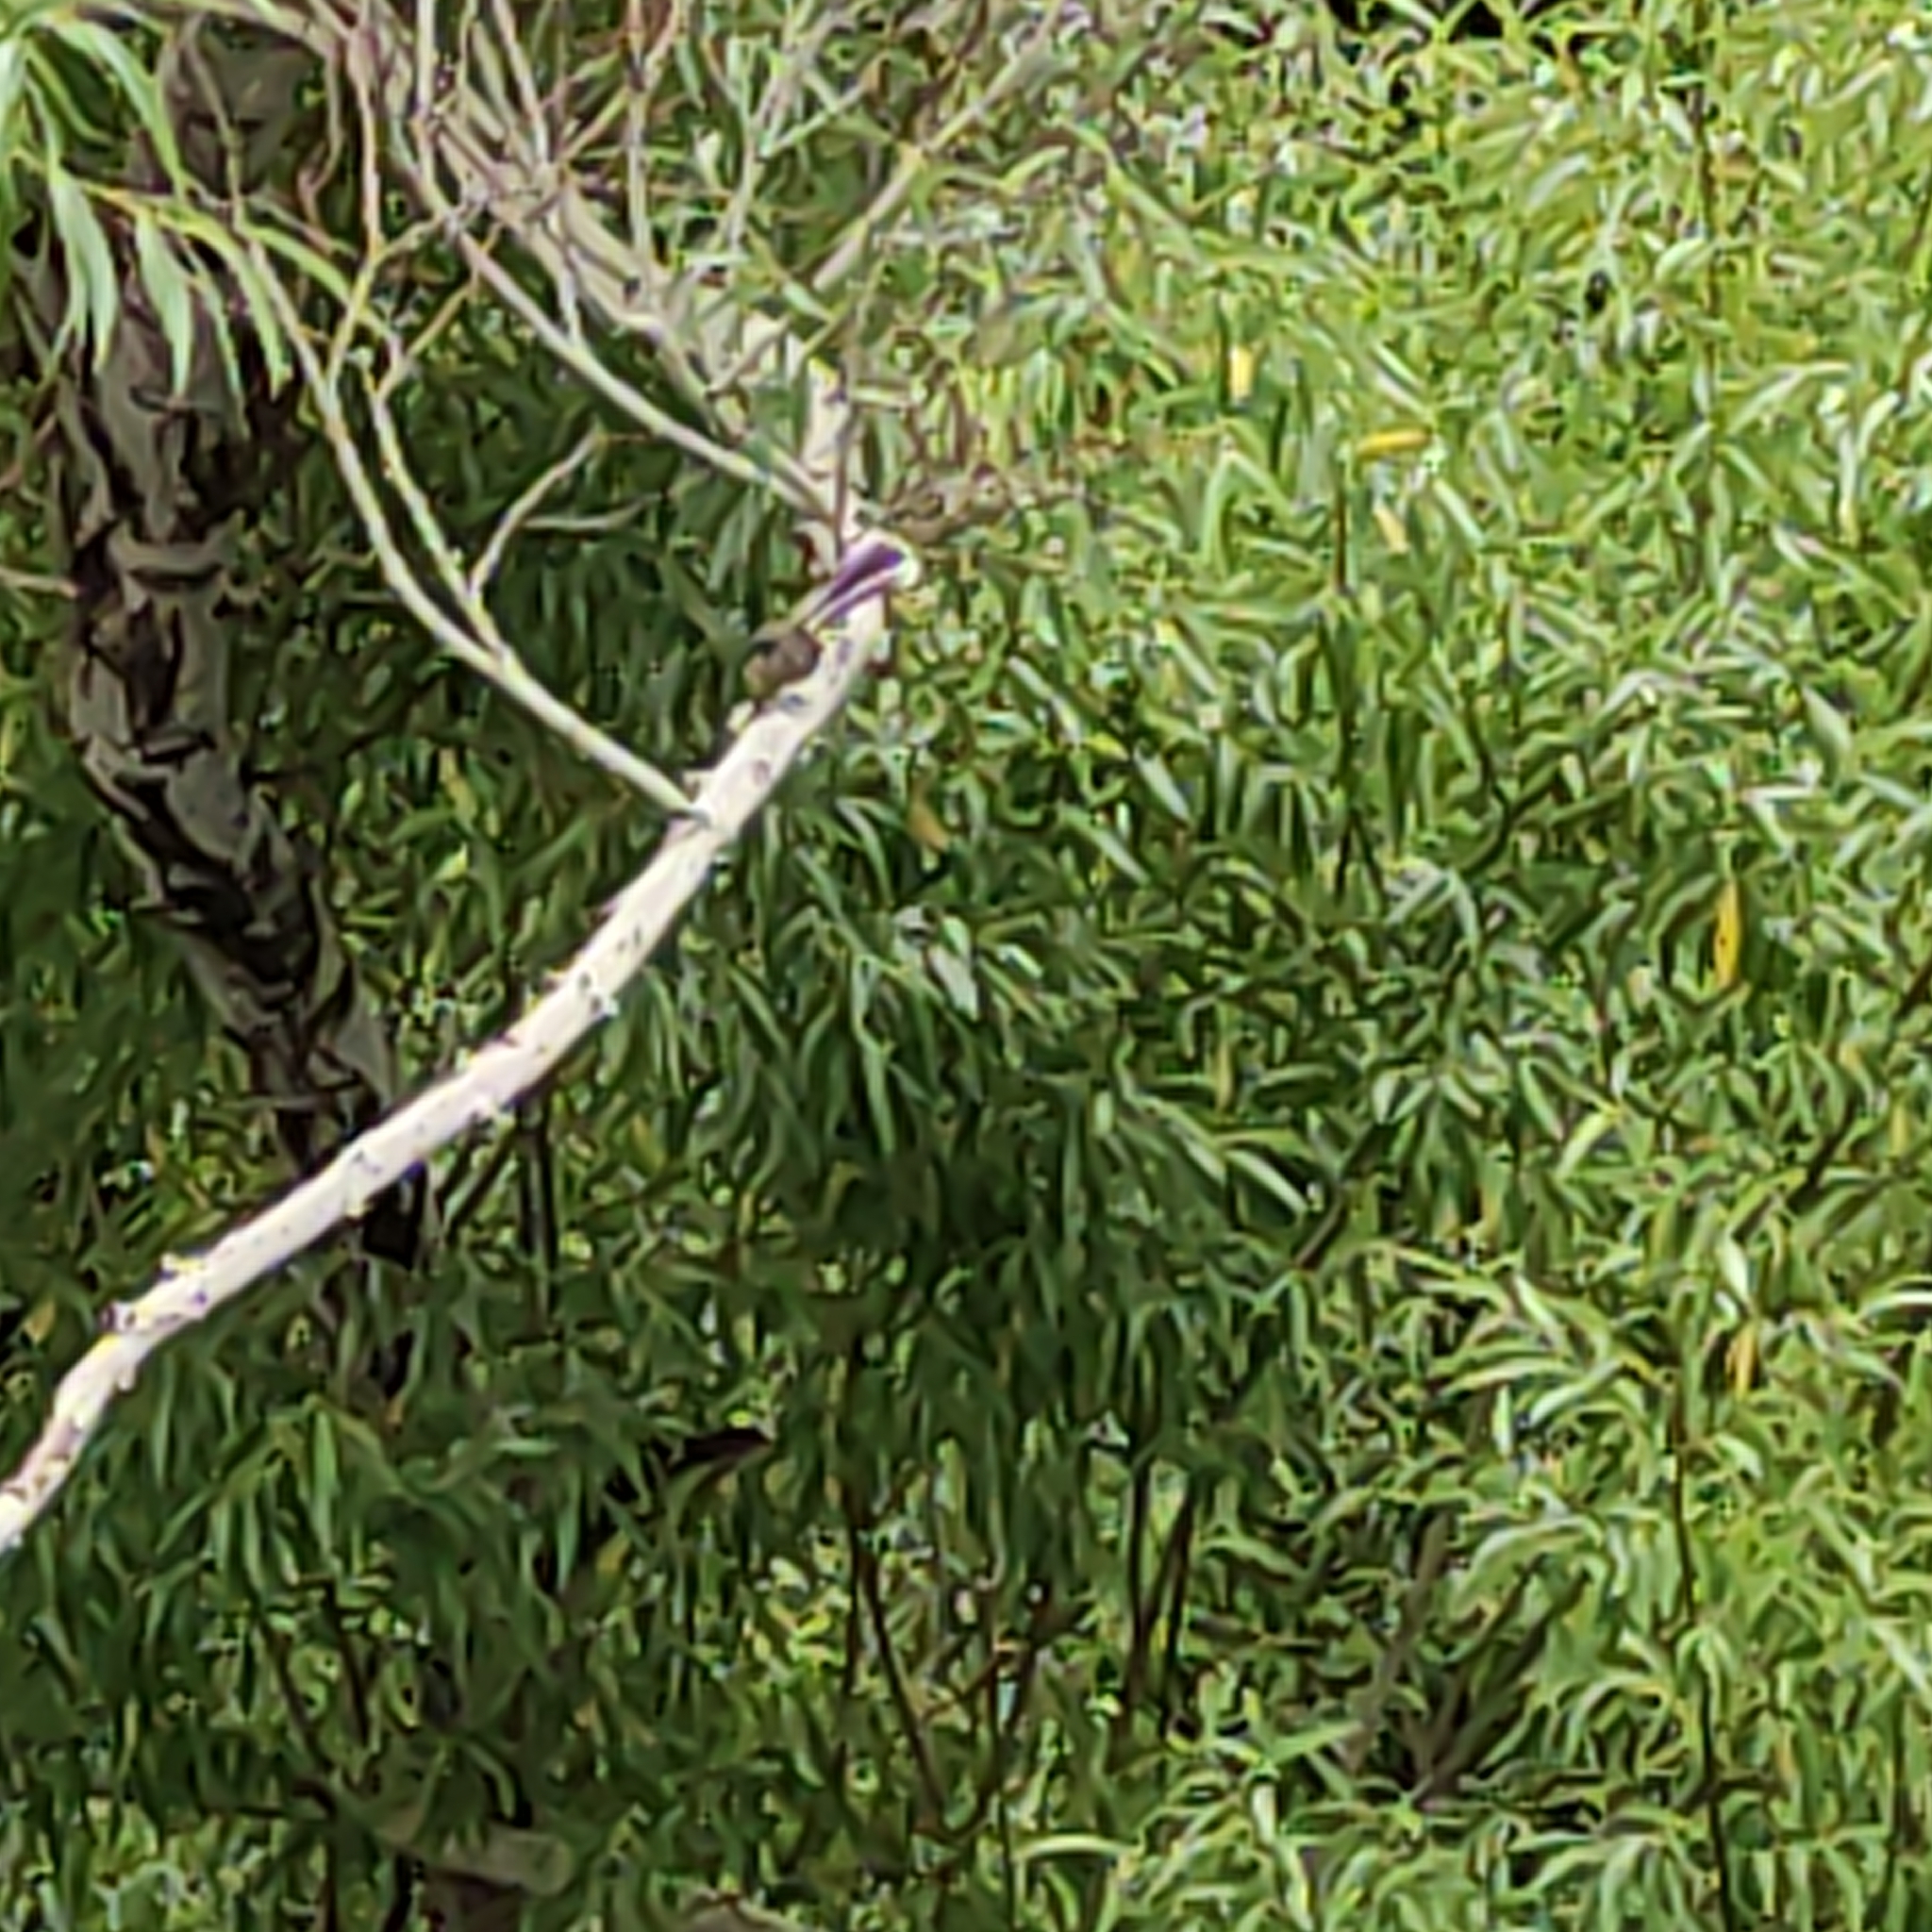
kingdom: Animalia
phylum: Chordata
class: Aves
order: Passeriformes
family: Rhipiduridae
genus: Rhipidura
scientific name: Rhipidura fuliginosa
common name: New zealand fantail
